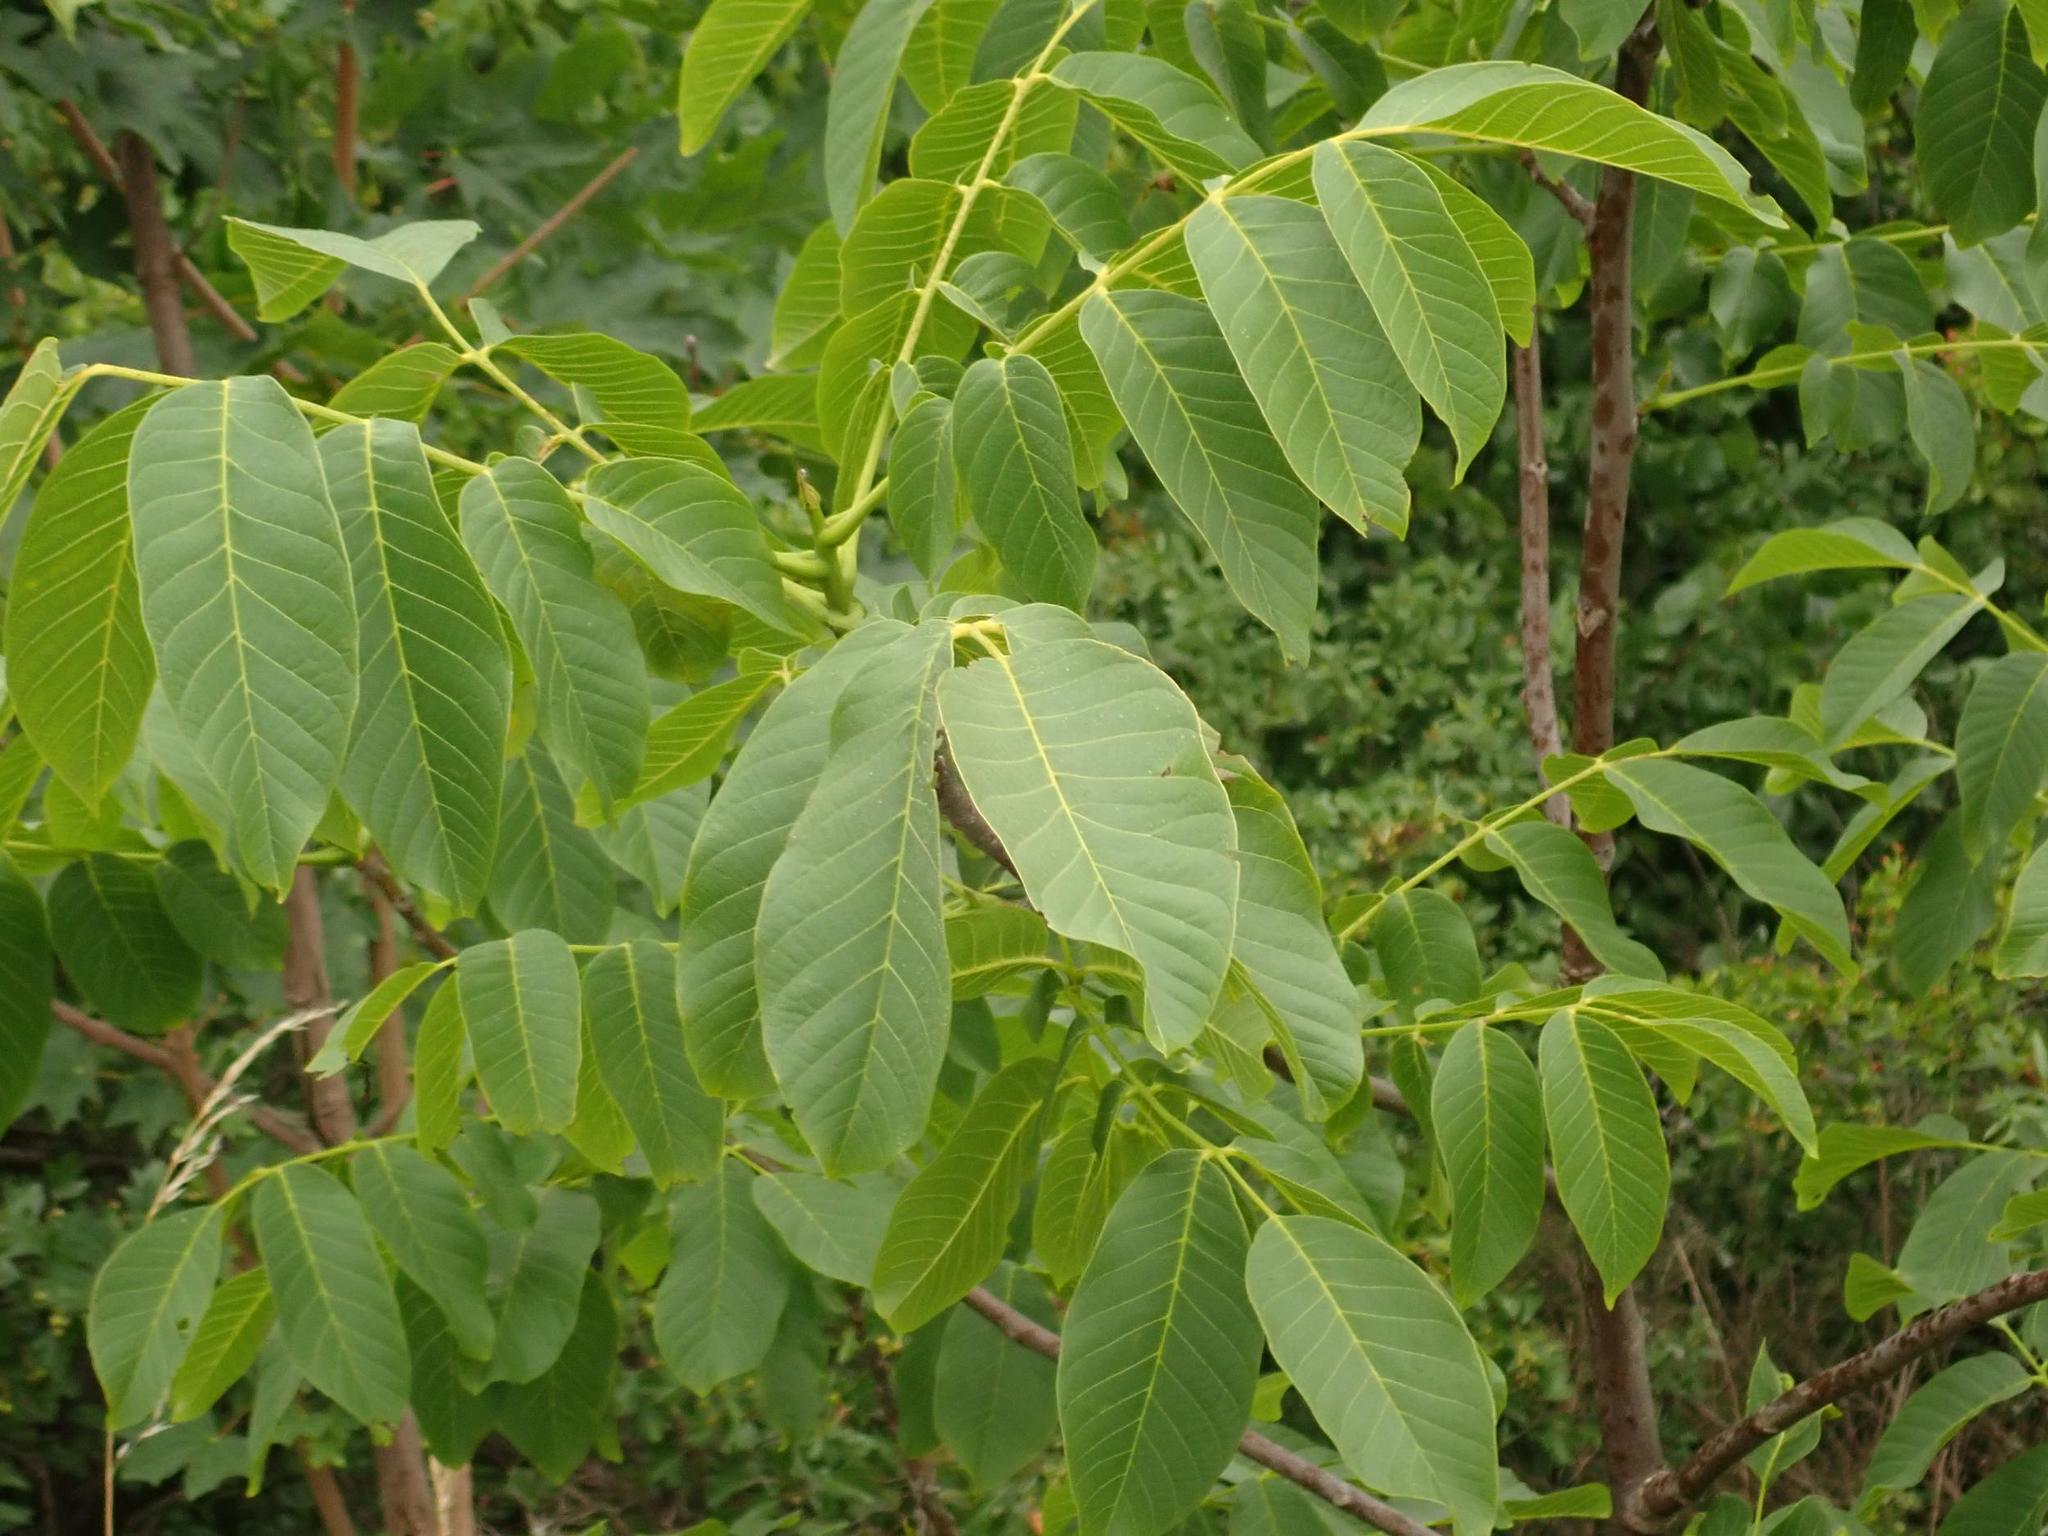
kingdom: Plantae
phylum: Tracheophyta
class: Magnoliopsida
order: Fagales
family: Juglandaceae
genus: Juglans
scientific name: Juglans regia
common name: Walnut
